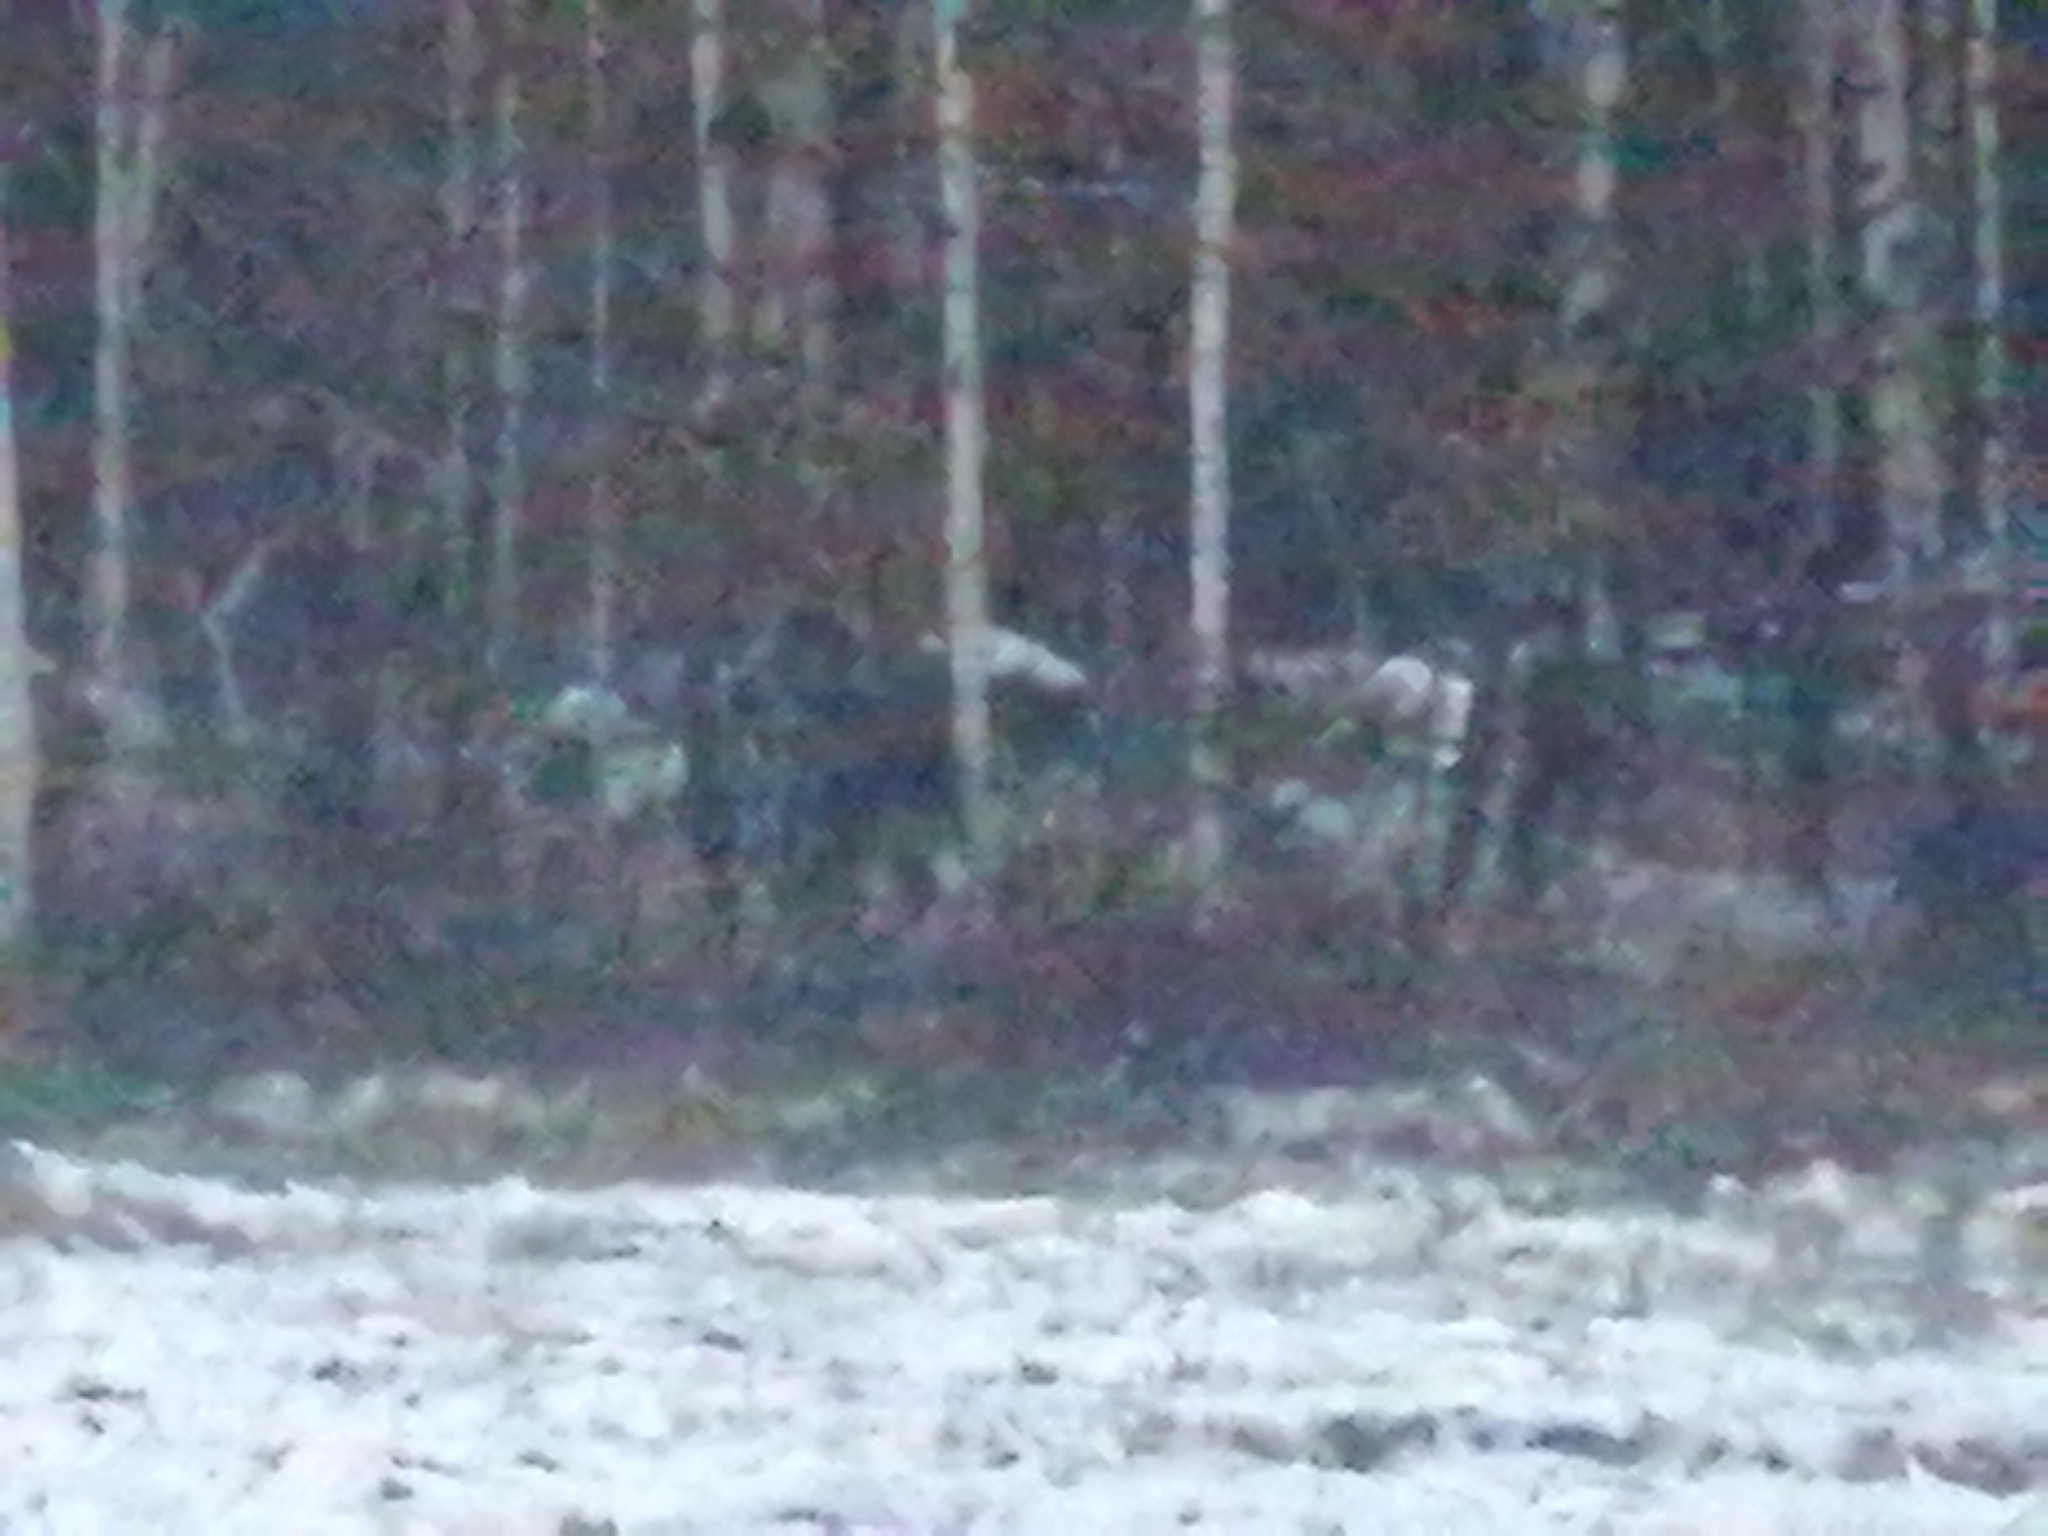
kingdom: Animalia
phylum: Chordata
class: Mammalia
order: Artiodactyla
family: Cervidae
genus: Alces
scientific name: Alces alces
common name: Moose
